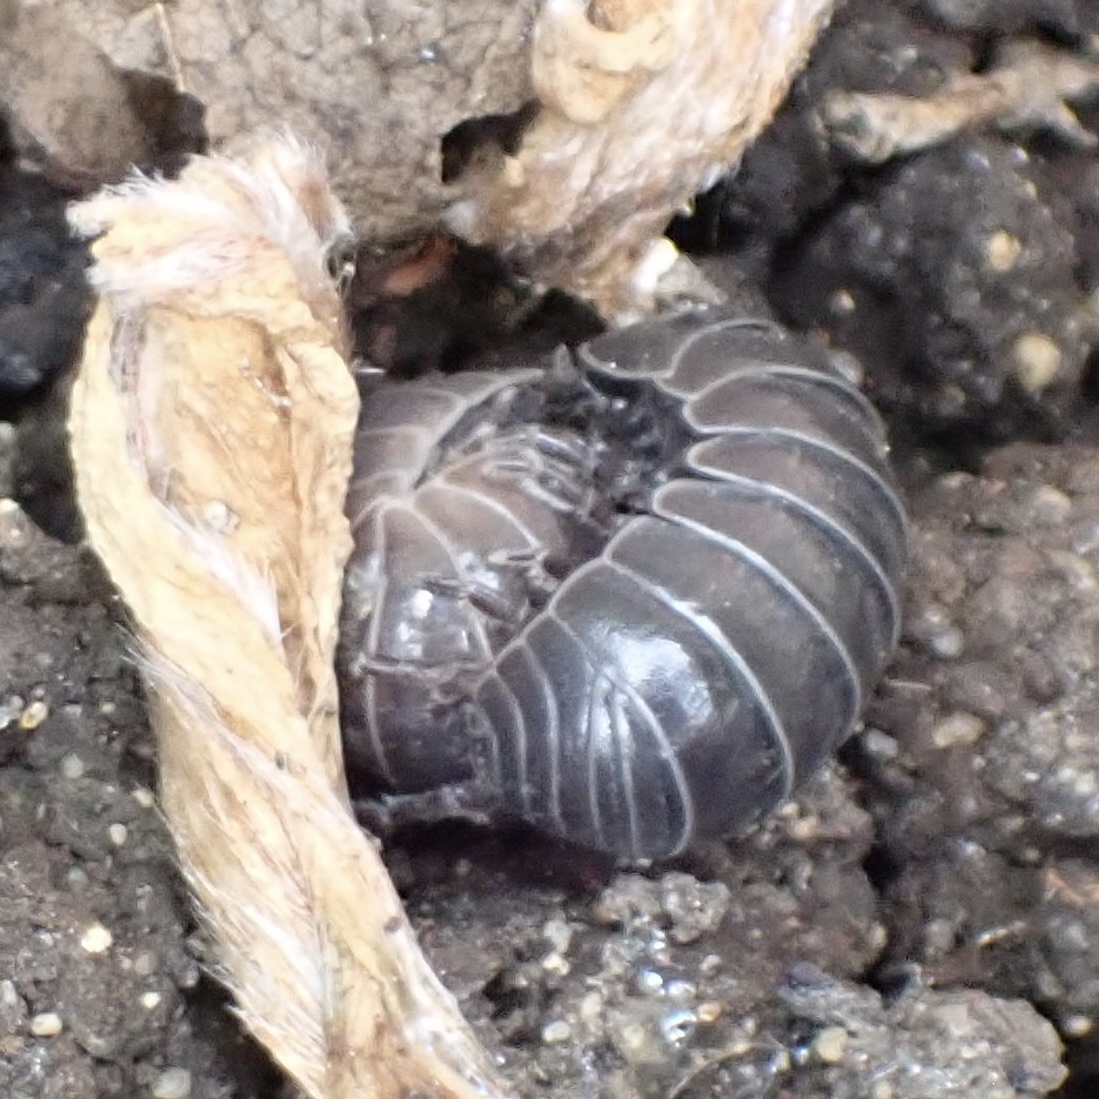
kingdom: Animalia
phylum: Arthropoda
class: Malacostraca
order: Isopoda
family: Armadillidiidae
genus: Armadillidium
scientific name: Armadillidium vulgare
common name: Common pill woodlouse
